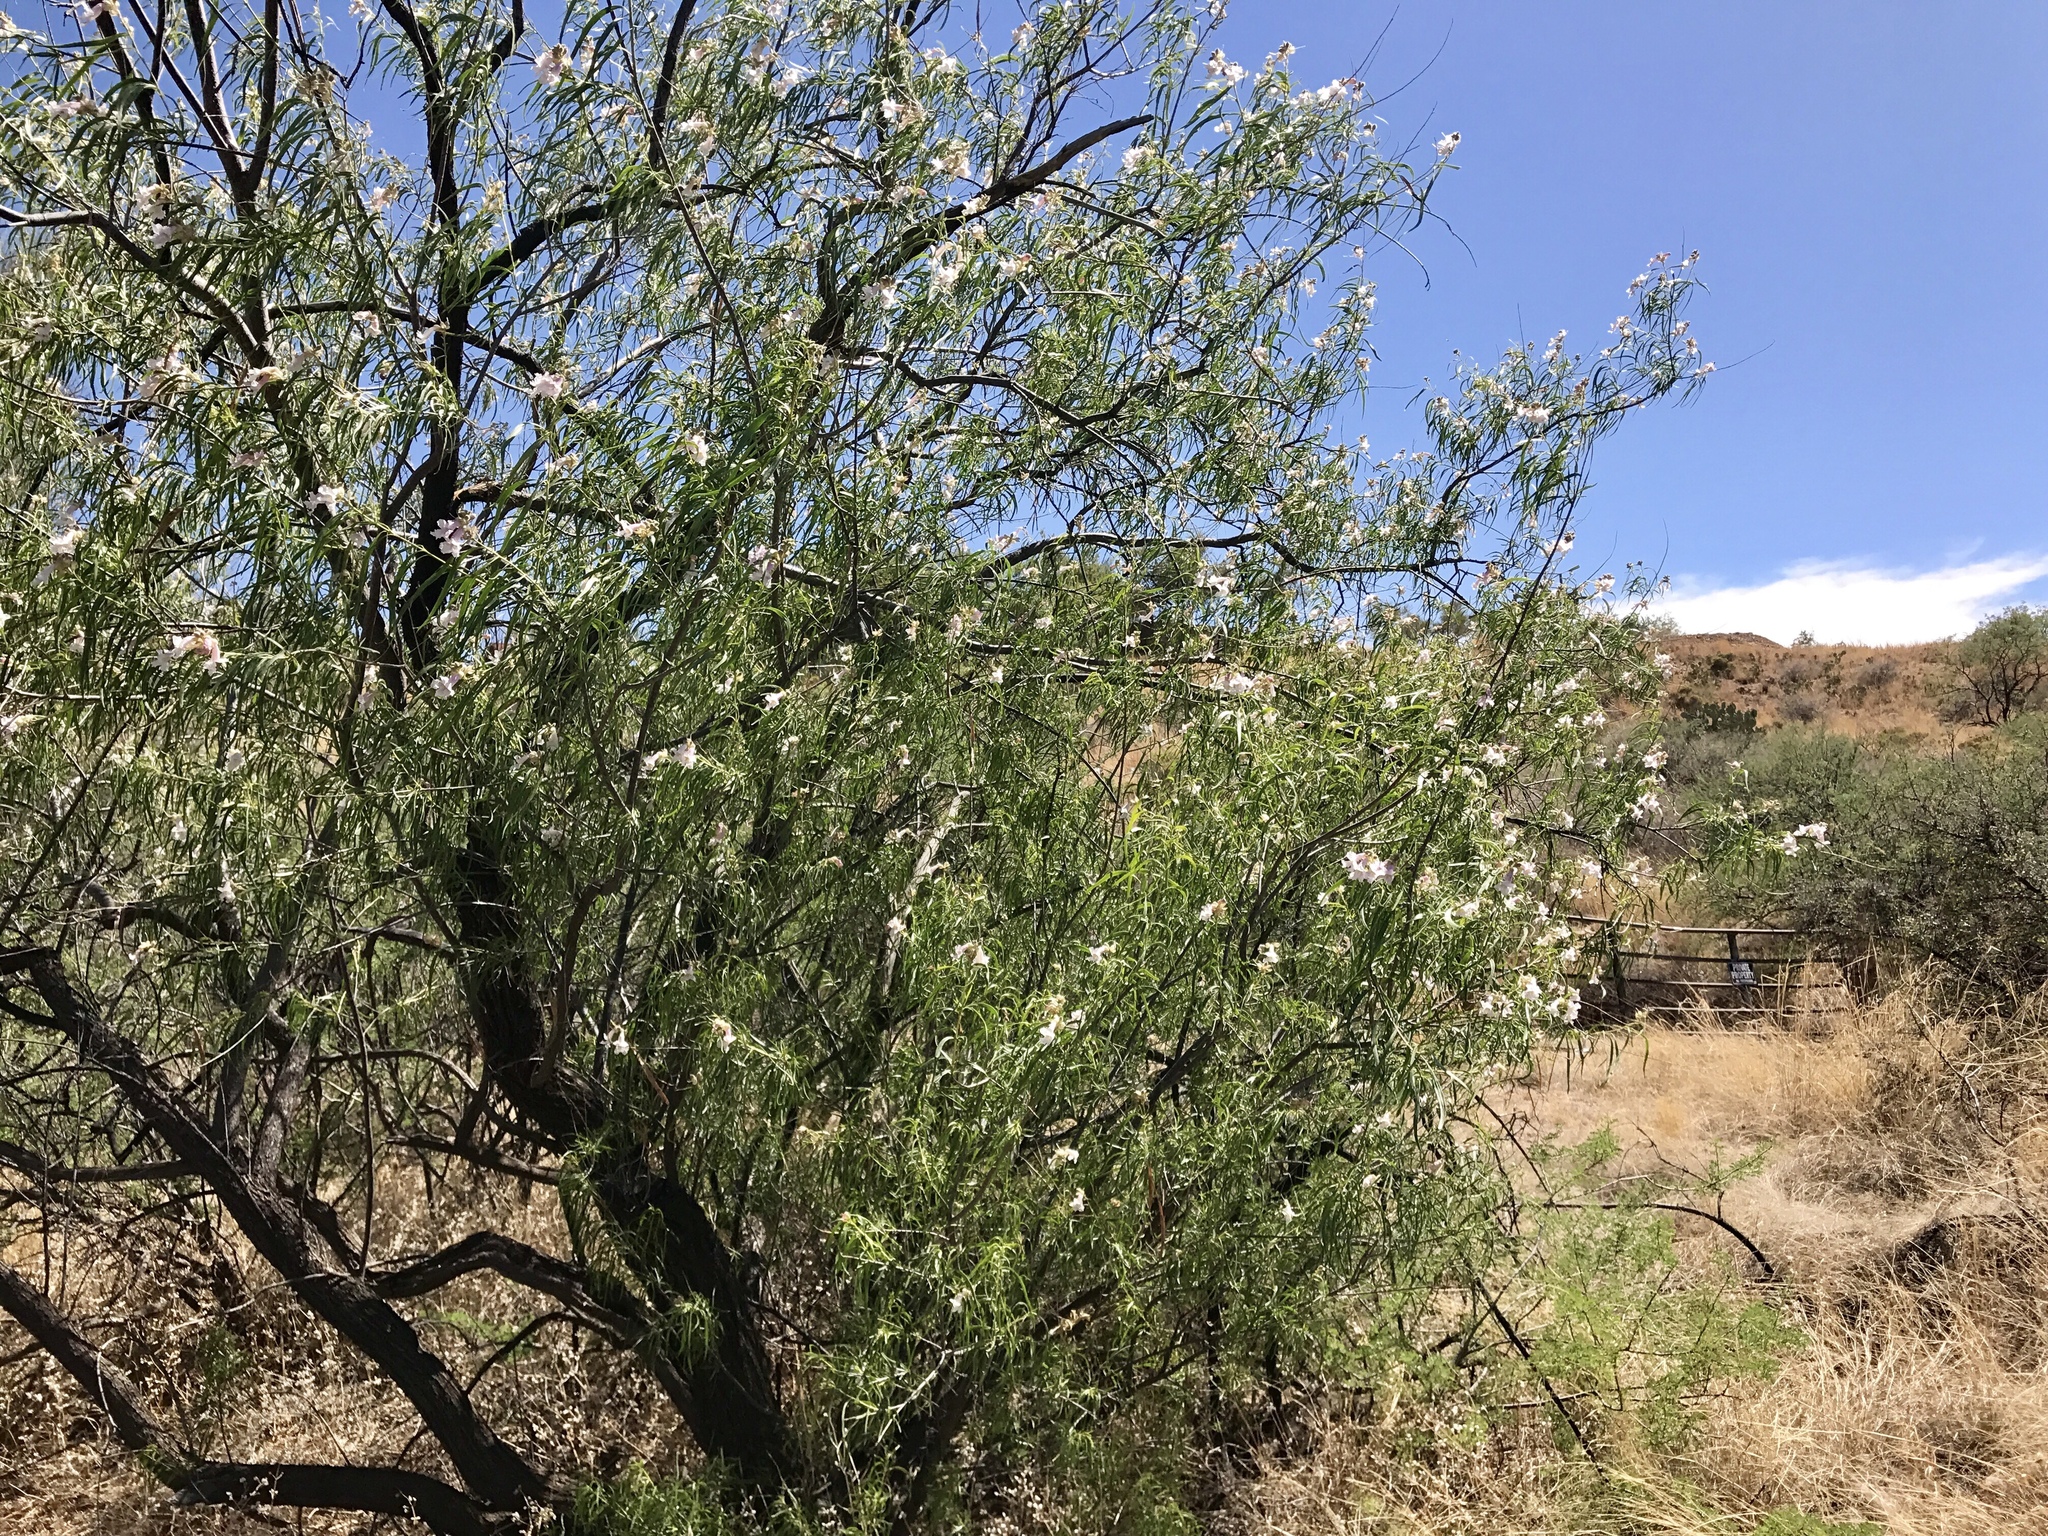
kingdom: Plantae
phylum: Tracheophyta
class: Magnoliopsida
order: Lamiales
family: Bignoniaceae
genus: Chilopsis
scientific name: Chilopsis linearis
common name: Desert-willow
